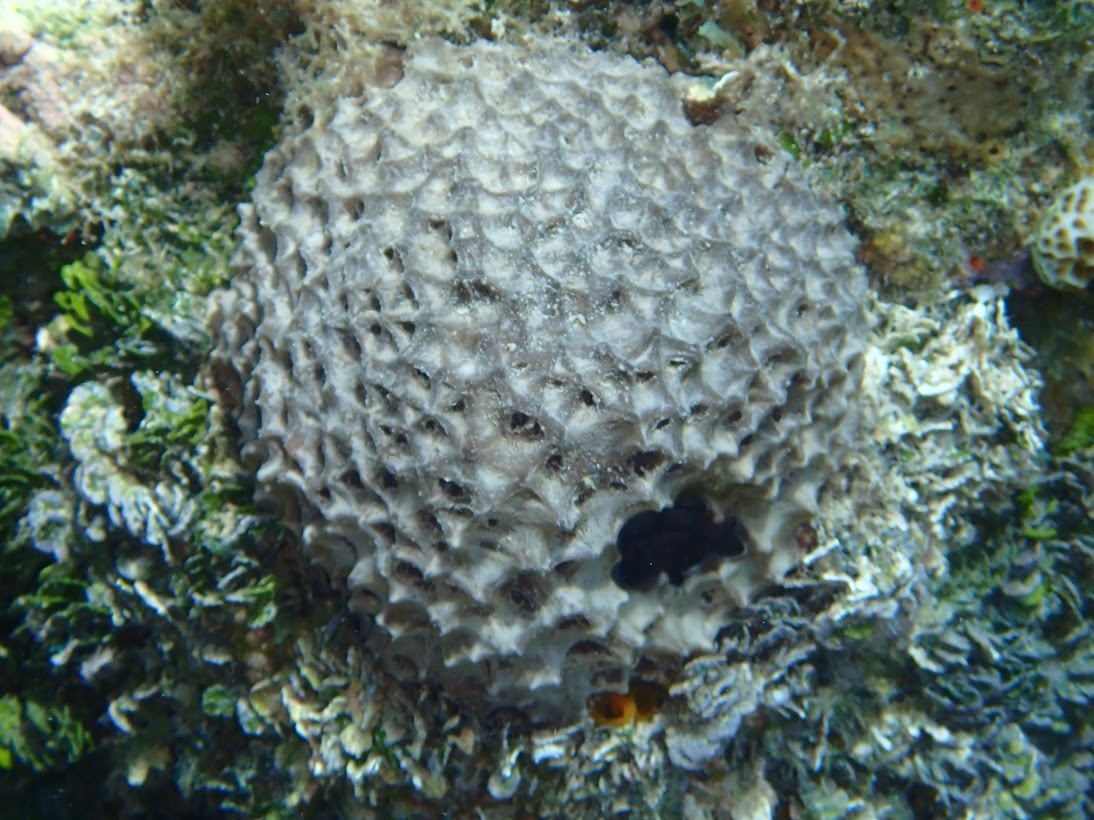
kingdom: Animalia
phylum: Porifera
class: Demospongiae
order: Dictyoceratida
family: Irciniidae
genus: Ircinia
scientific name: Ircinia strobilina
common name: Cake sponge
